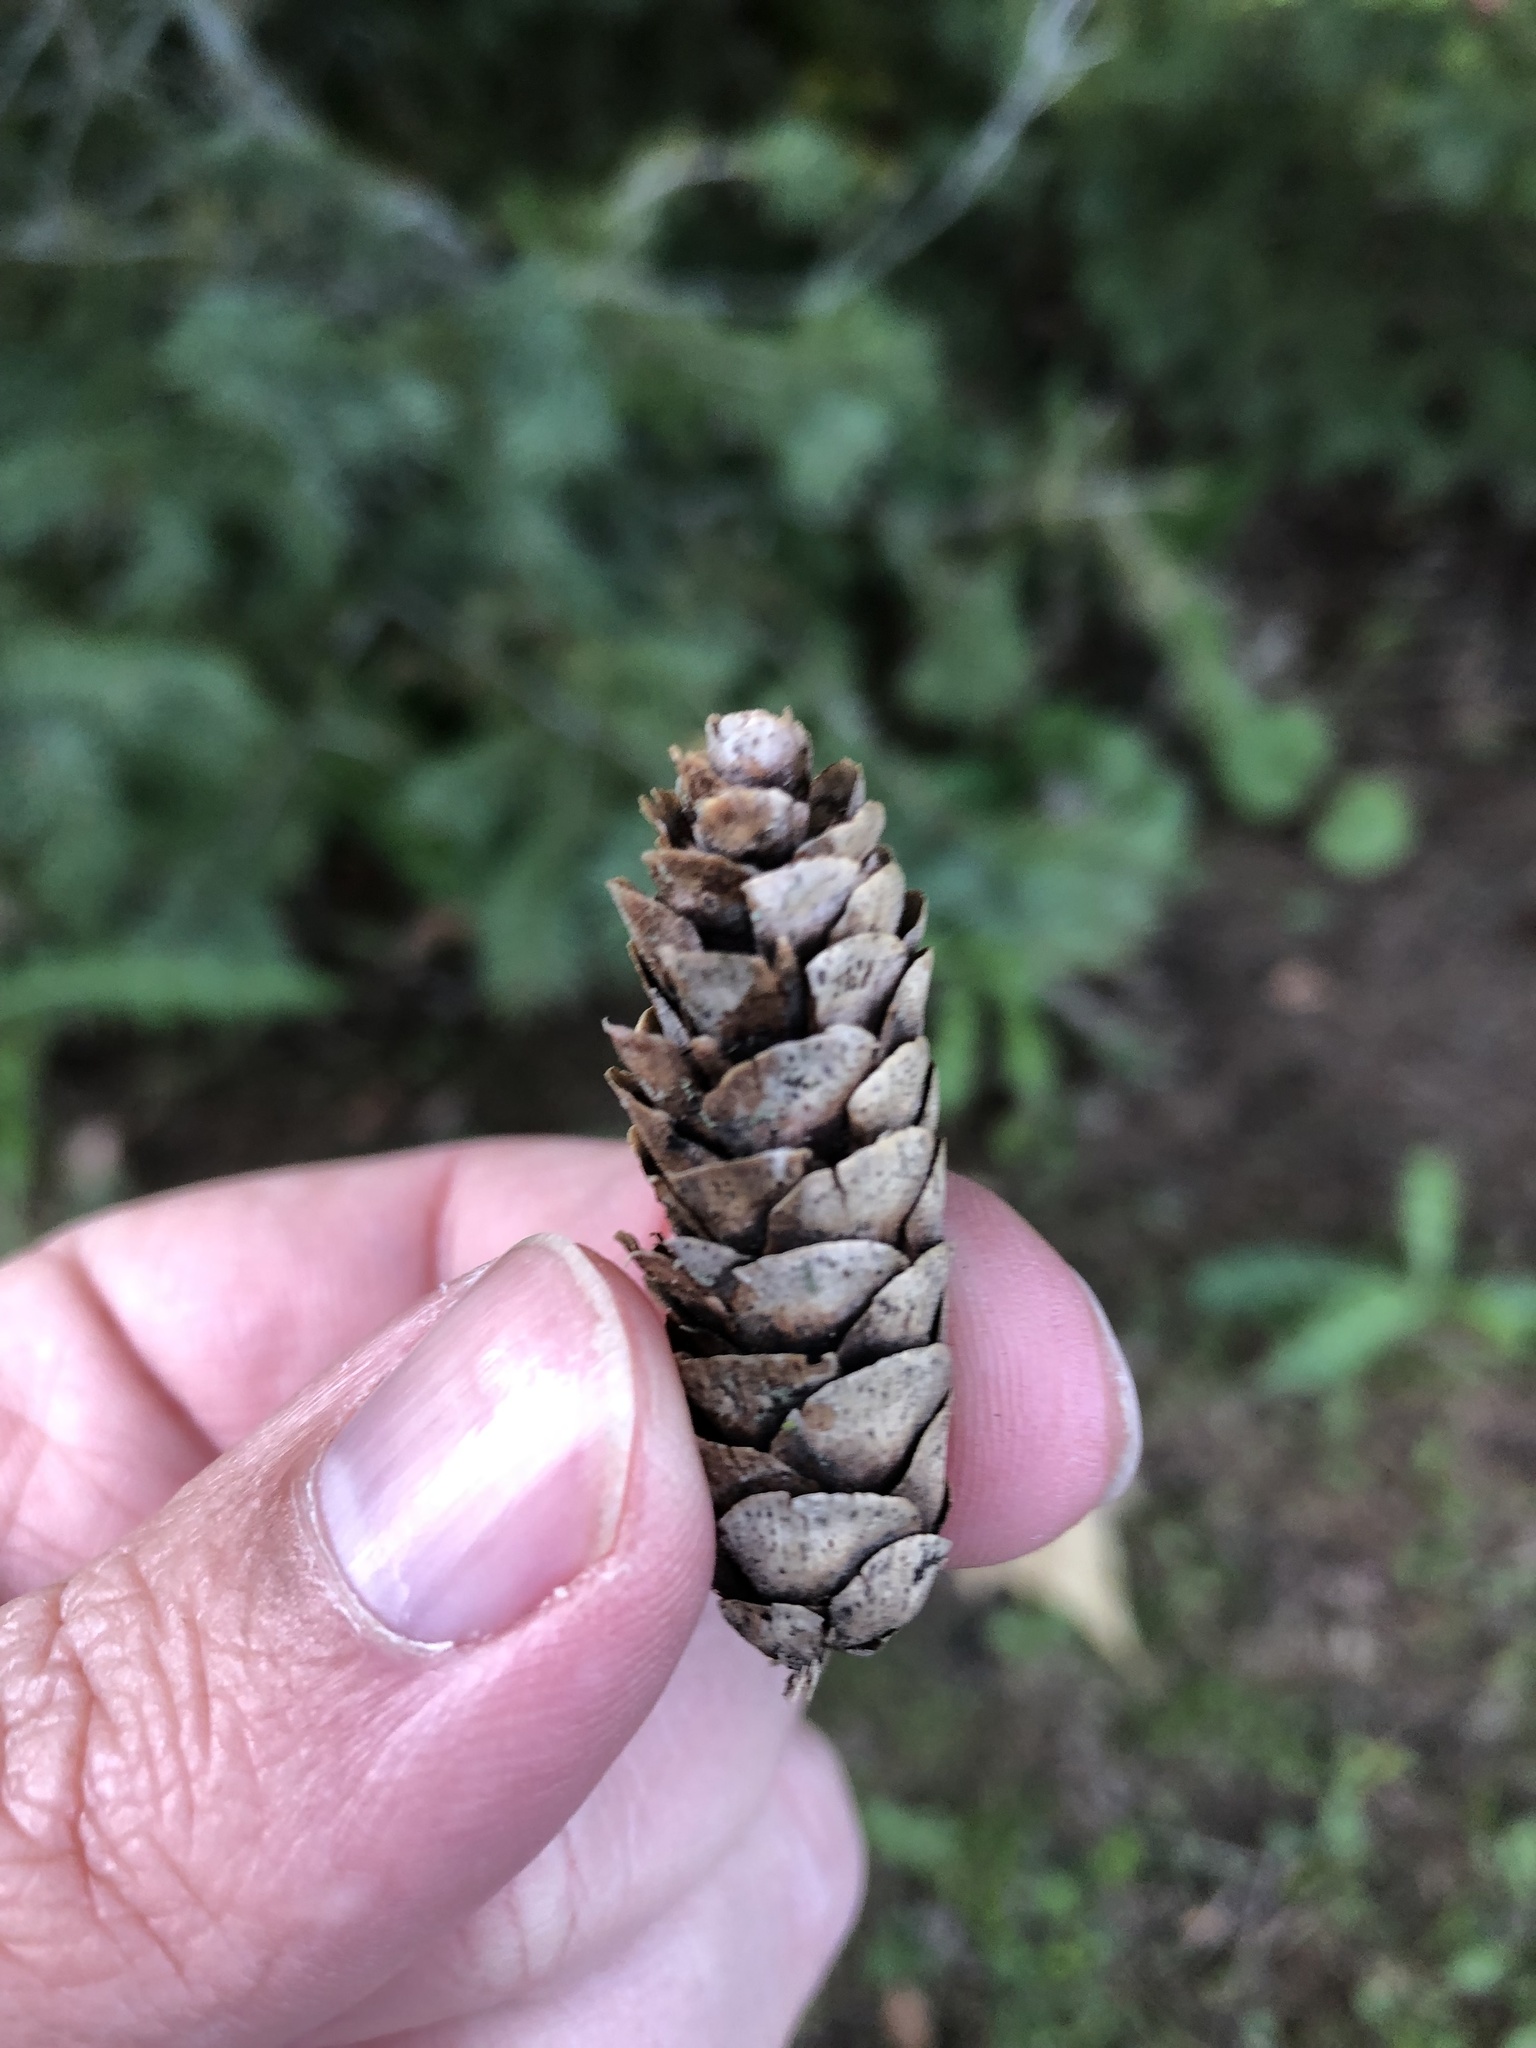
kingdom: Plantae
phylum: Tracheophyta
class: Pinopsida
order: Pinales
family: Pinaceae
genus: Picea
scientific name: Picea glauca
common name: White spruce
